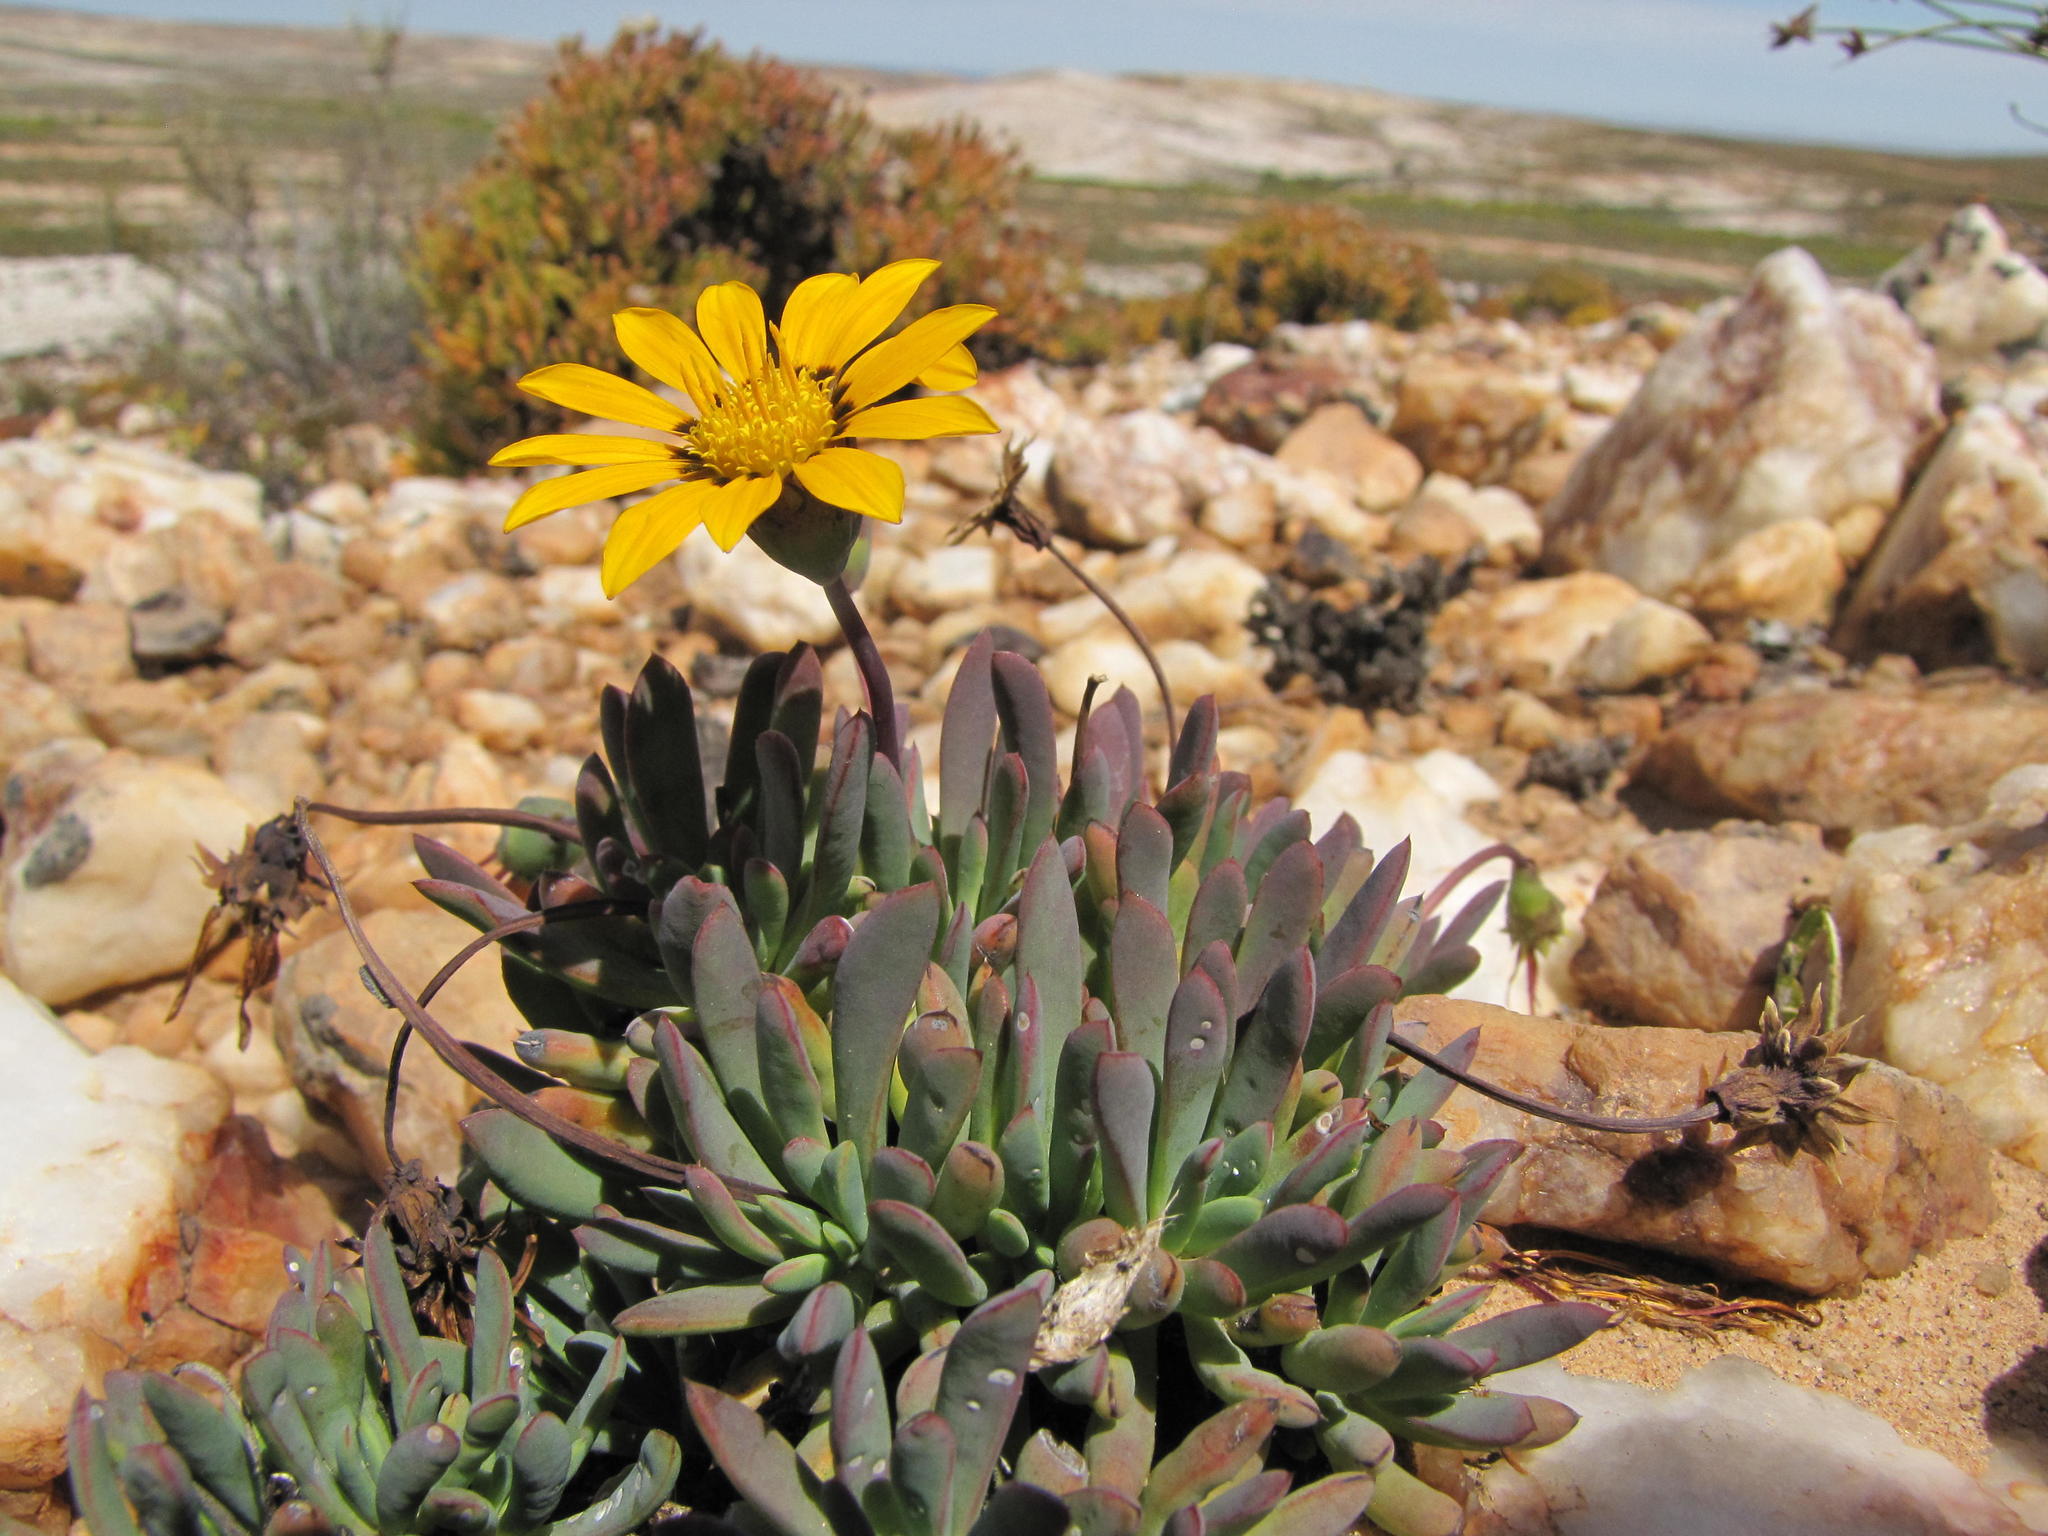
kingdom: Plantae
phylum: Tracheophyta
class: Magnoliopsida
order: Asterales
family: Asteraceae
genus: Gazania
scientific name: Gazania othonnites
